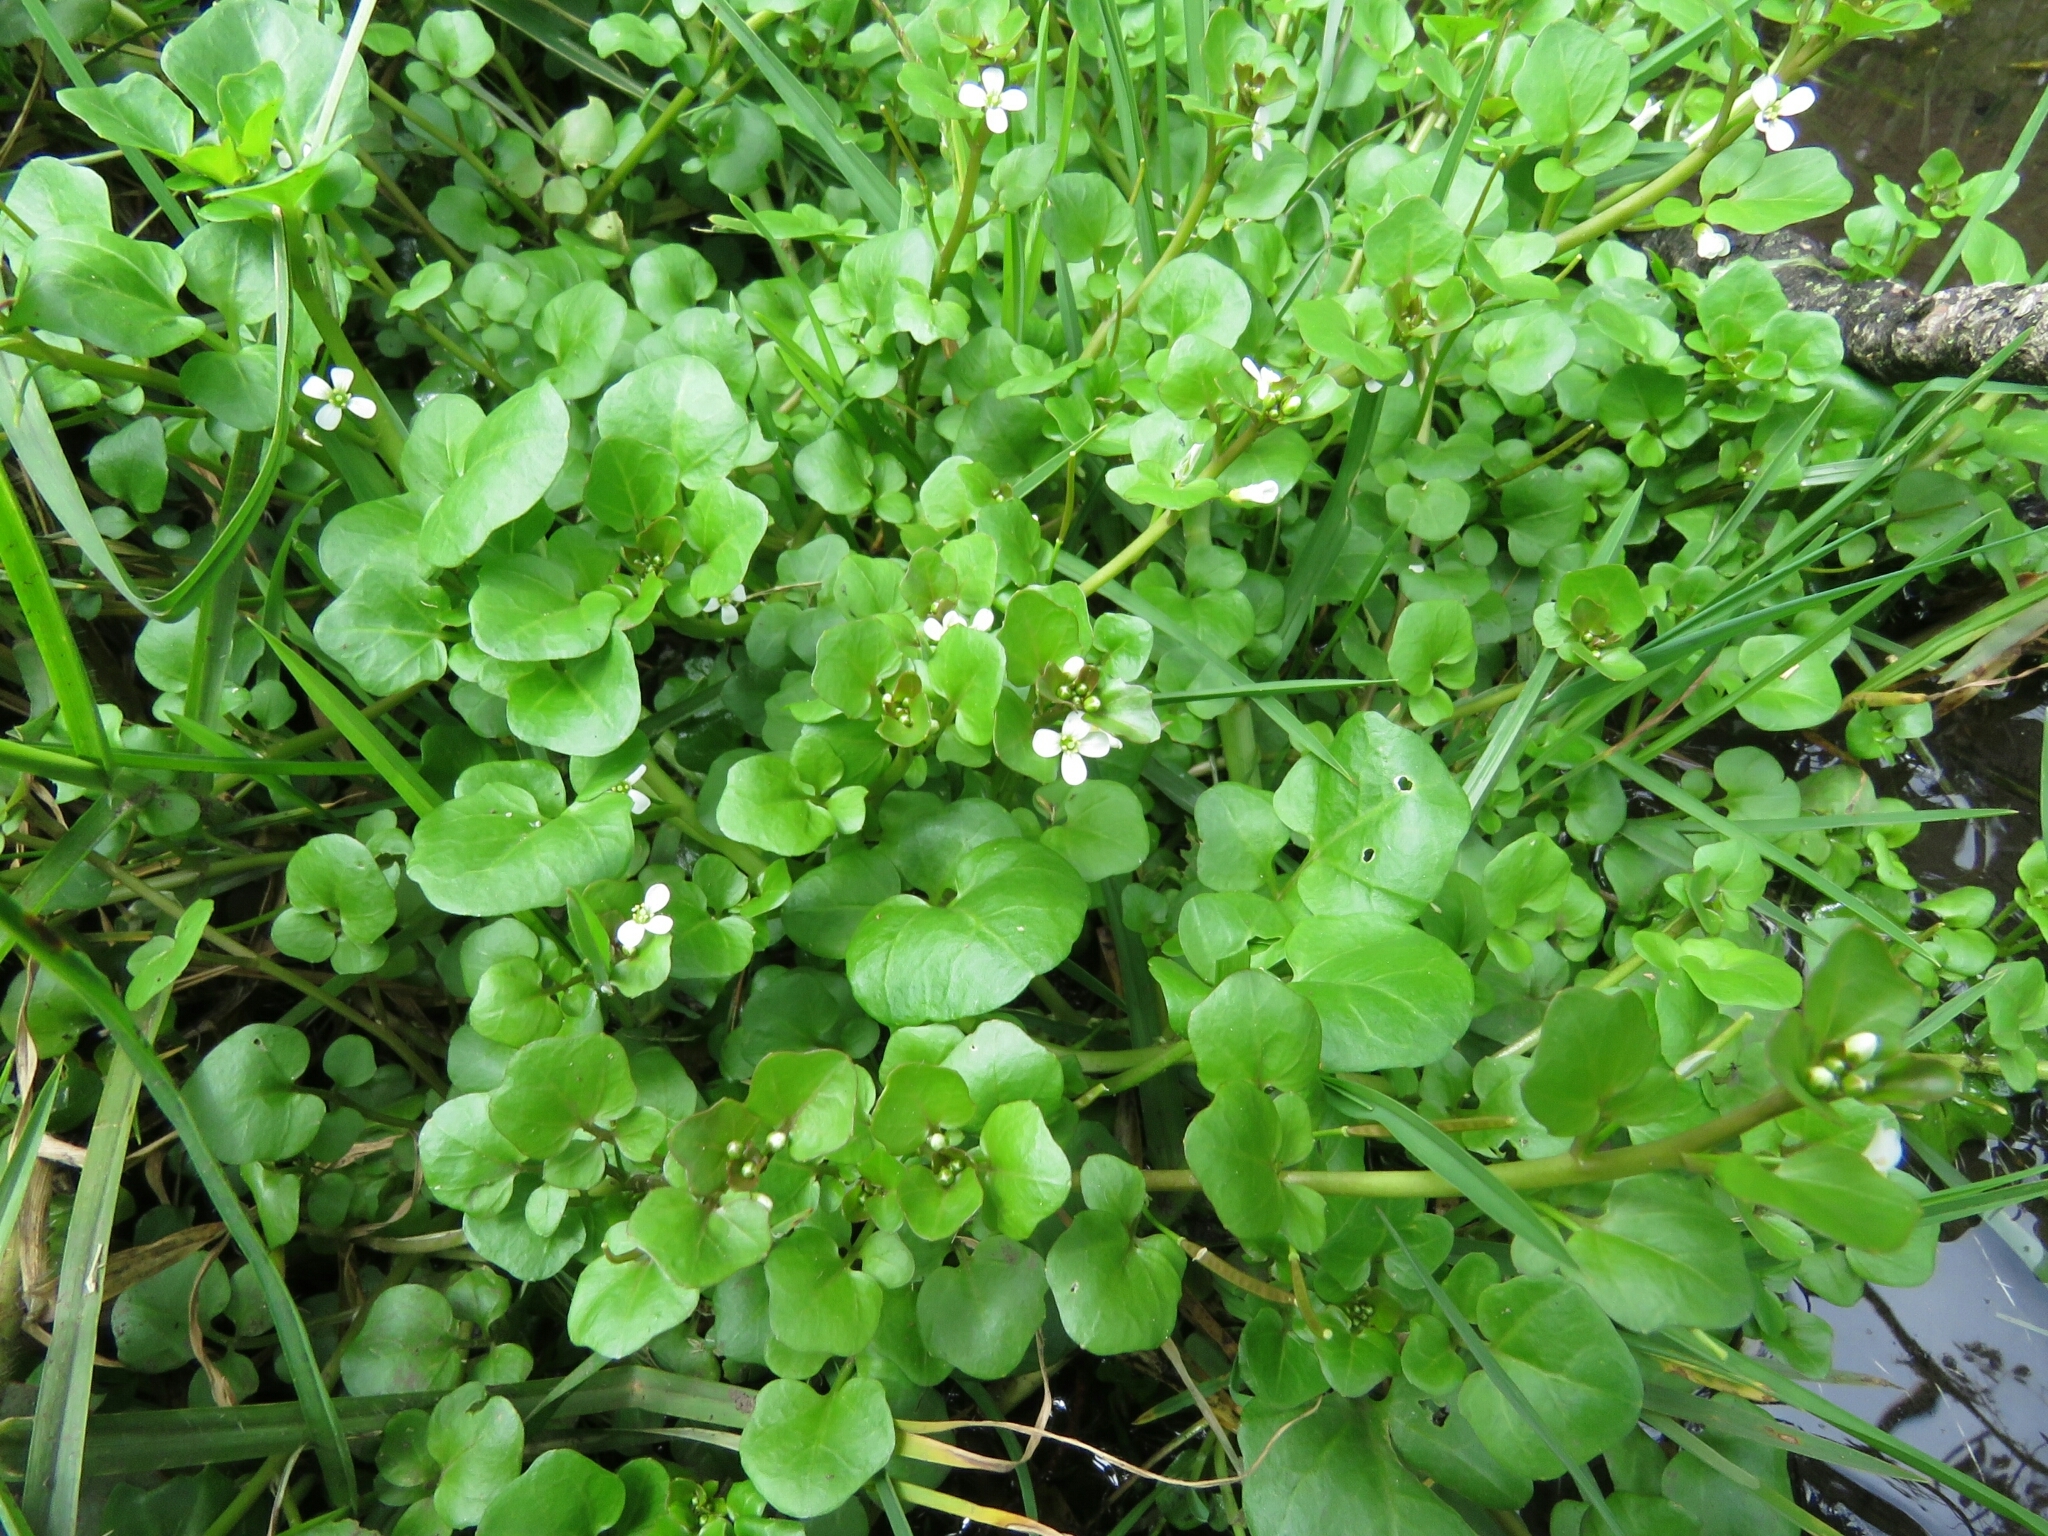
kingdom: Plantae
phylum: Tracheophyta
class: Magnoliopsida
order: Brassicales
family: Brassicaceae
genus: Nasturtium
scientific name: Nasturtium officinale
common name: Watercress
